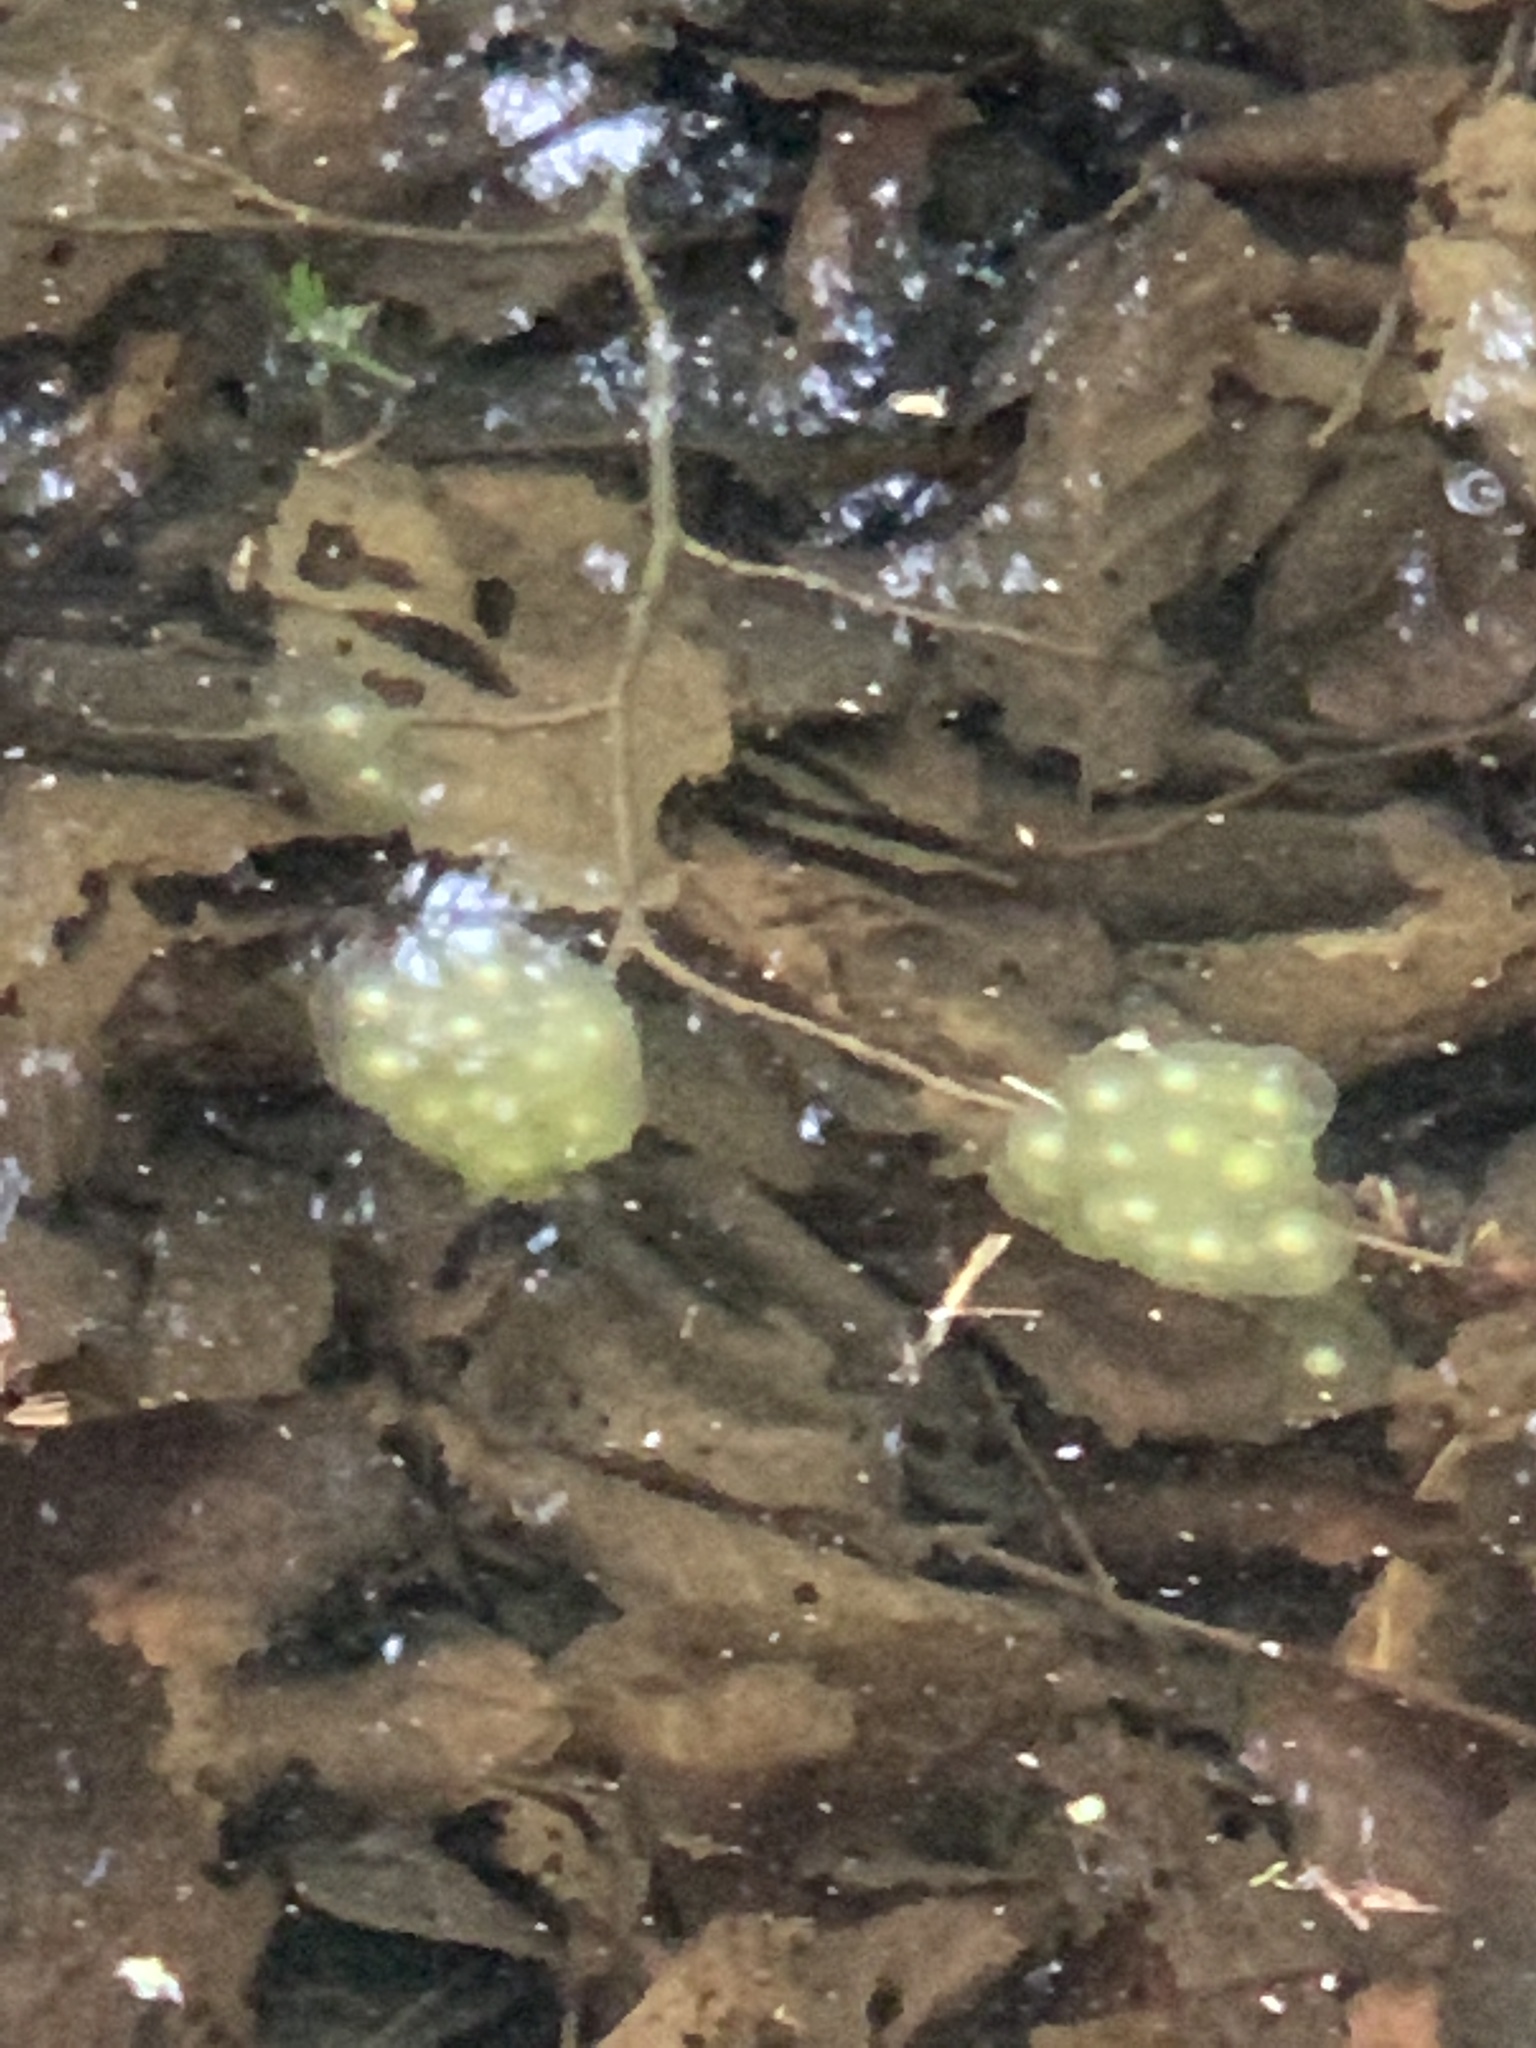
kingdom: Animalia
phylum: Chordata
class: Amphibia
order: Caudata
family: Ambystomatidae
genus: Ambystoma
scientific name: Ambystoma unisexual
